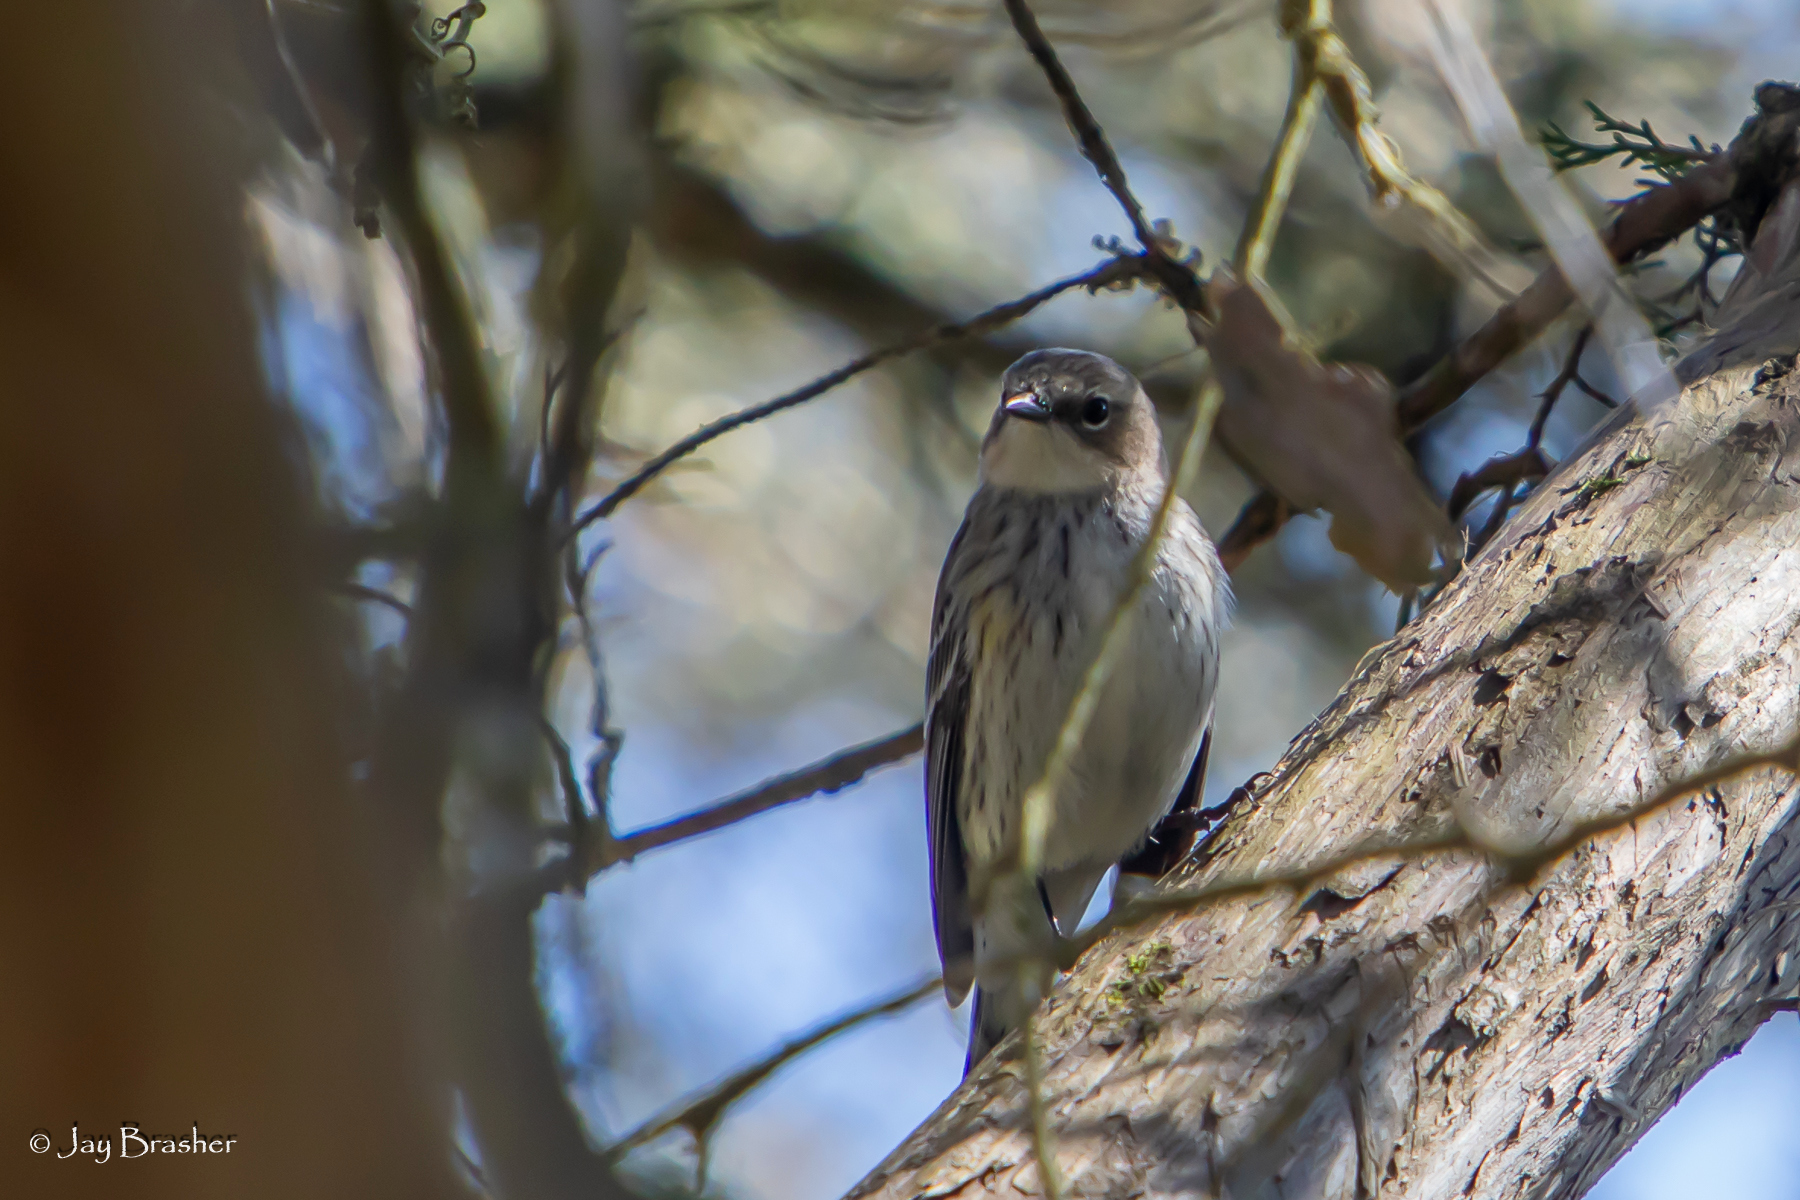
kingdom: Animalia
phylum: Chordata
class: Aves
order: Passeriformes
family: Parulidae
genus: Setophaga
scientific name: Setophaga coronata
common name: Myrtle warbler
